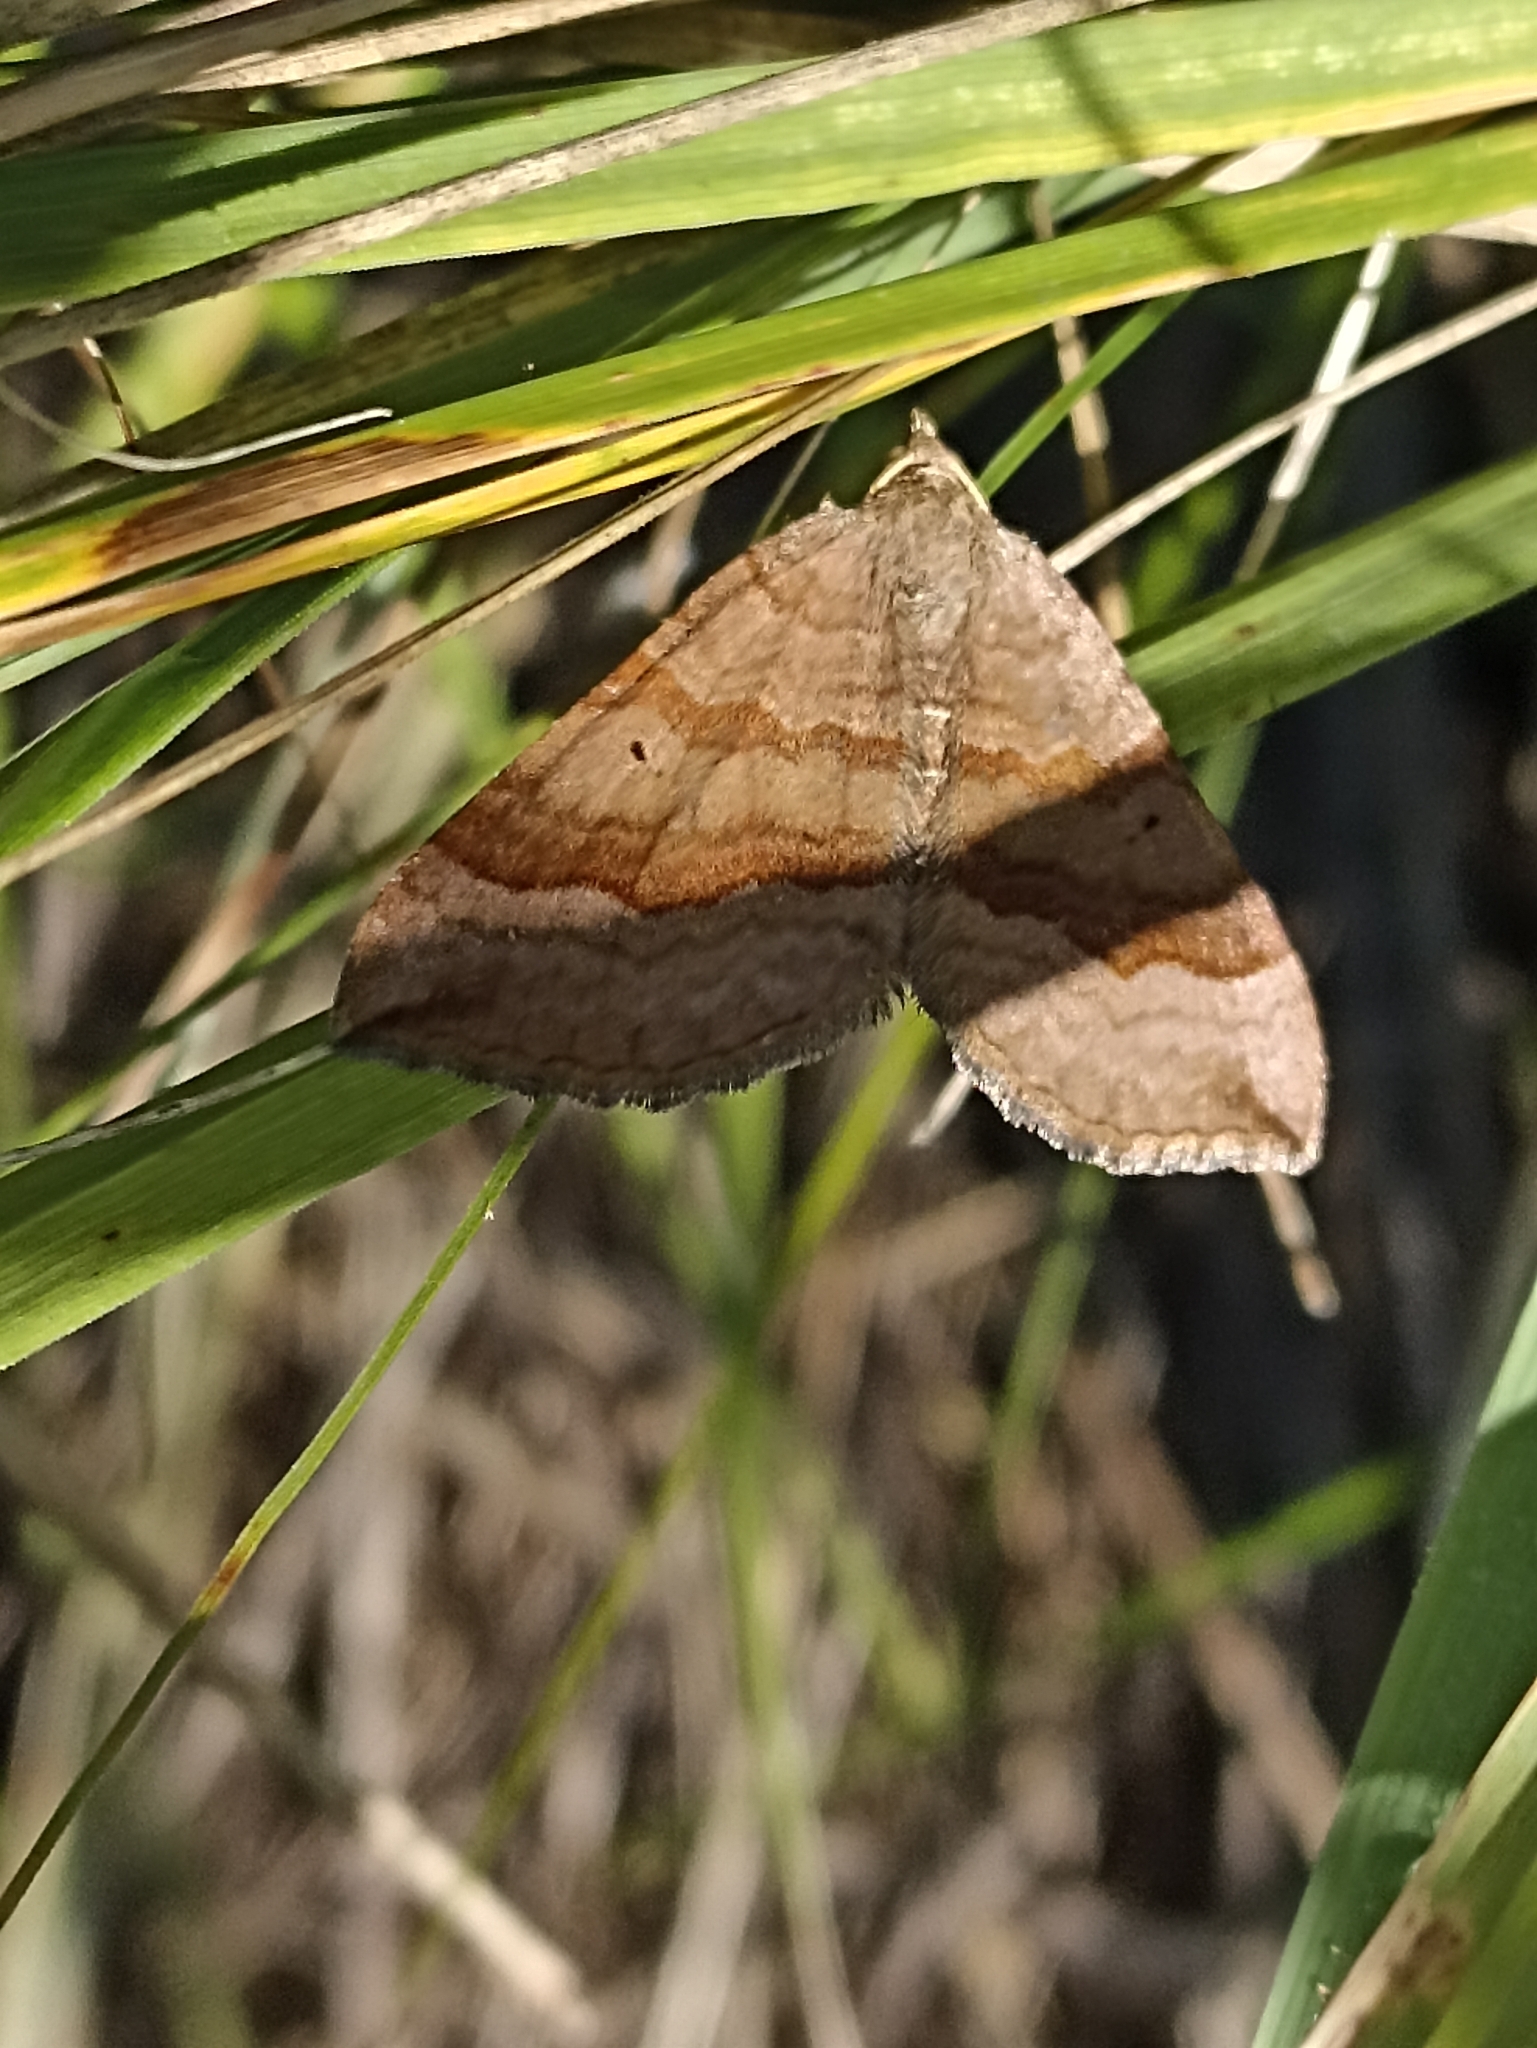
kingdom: Animalia
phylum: Arthropoda
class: Insecta
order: Lepidoptera
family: Geometridae
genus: Scotopteryx
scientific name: Scotopteryx chenopodiata
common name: Shaded broad-bar
